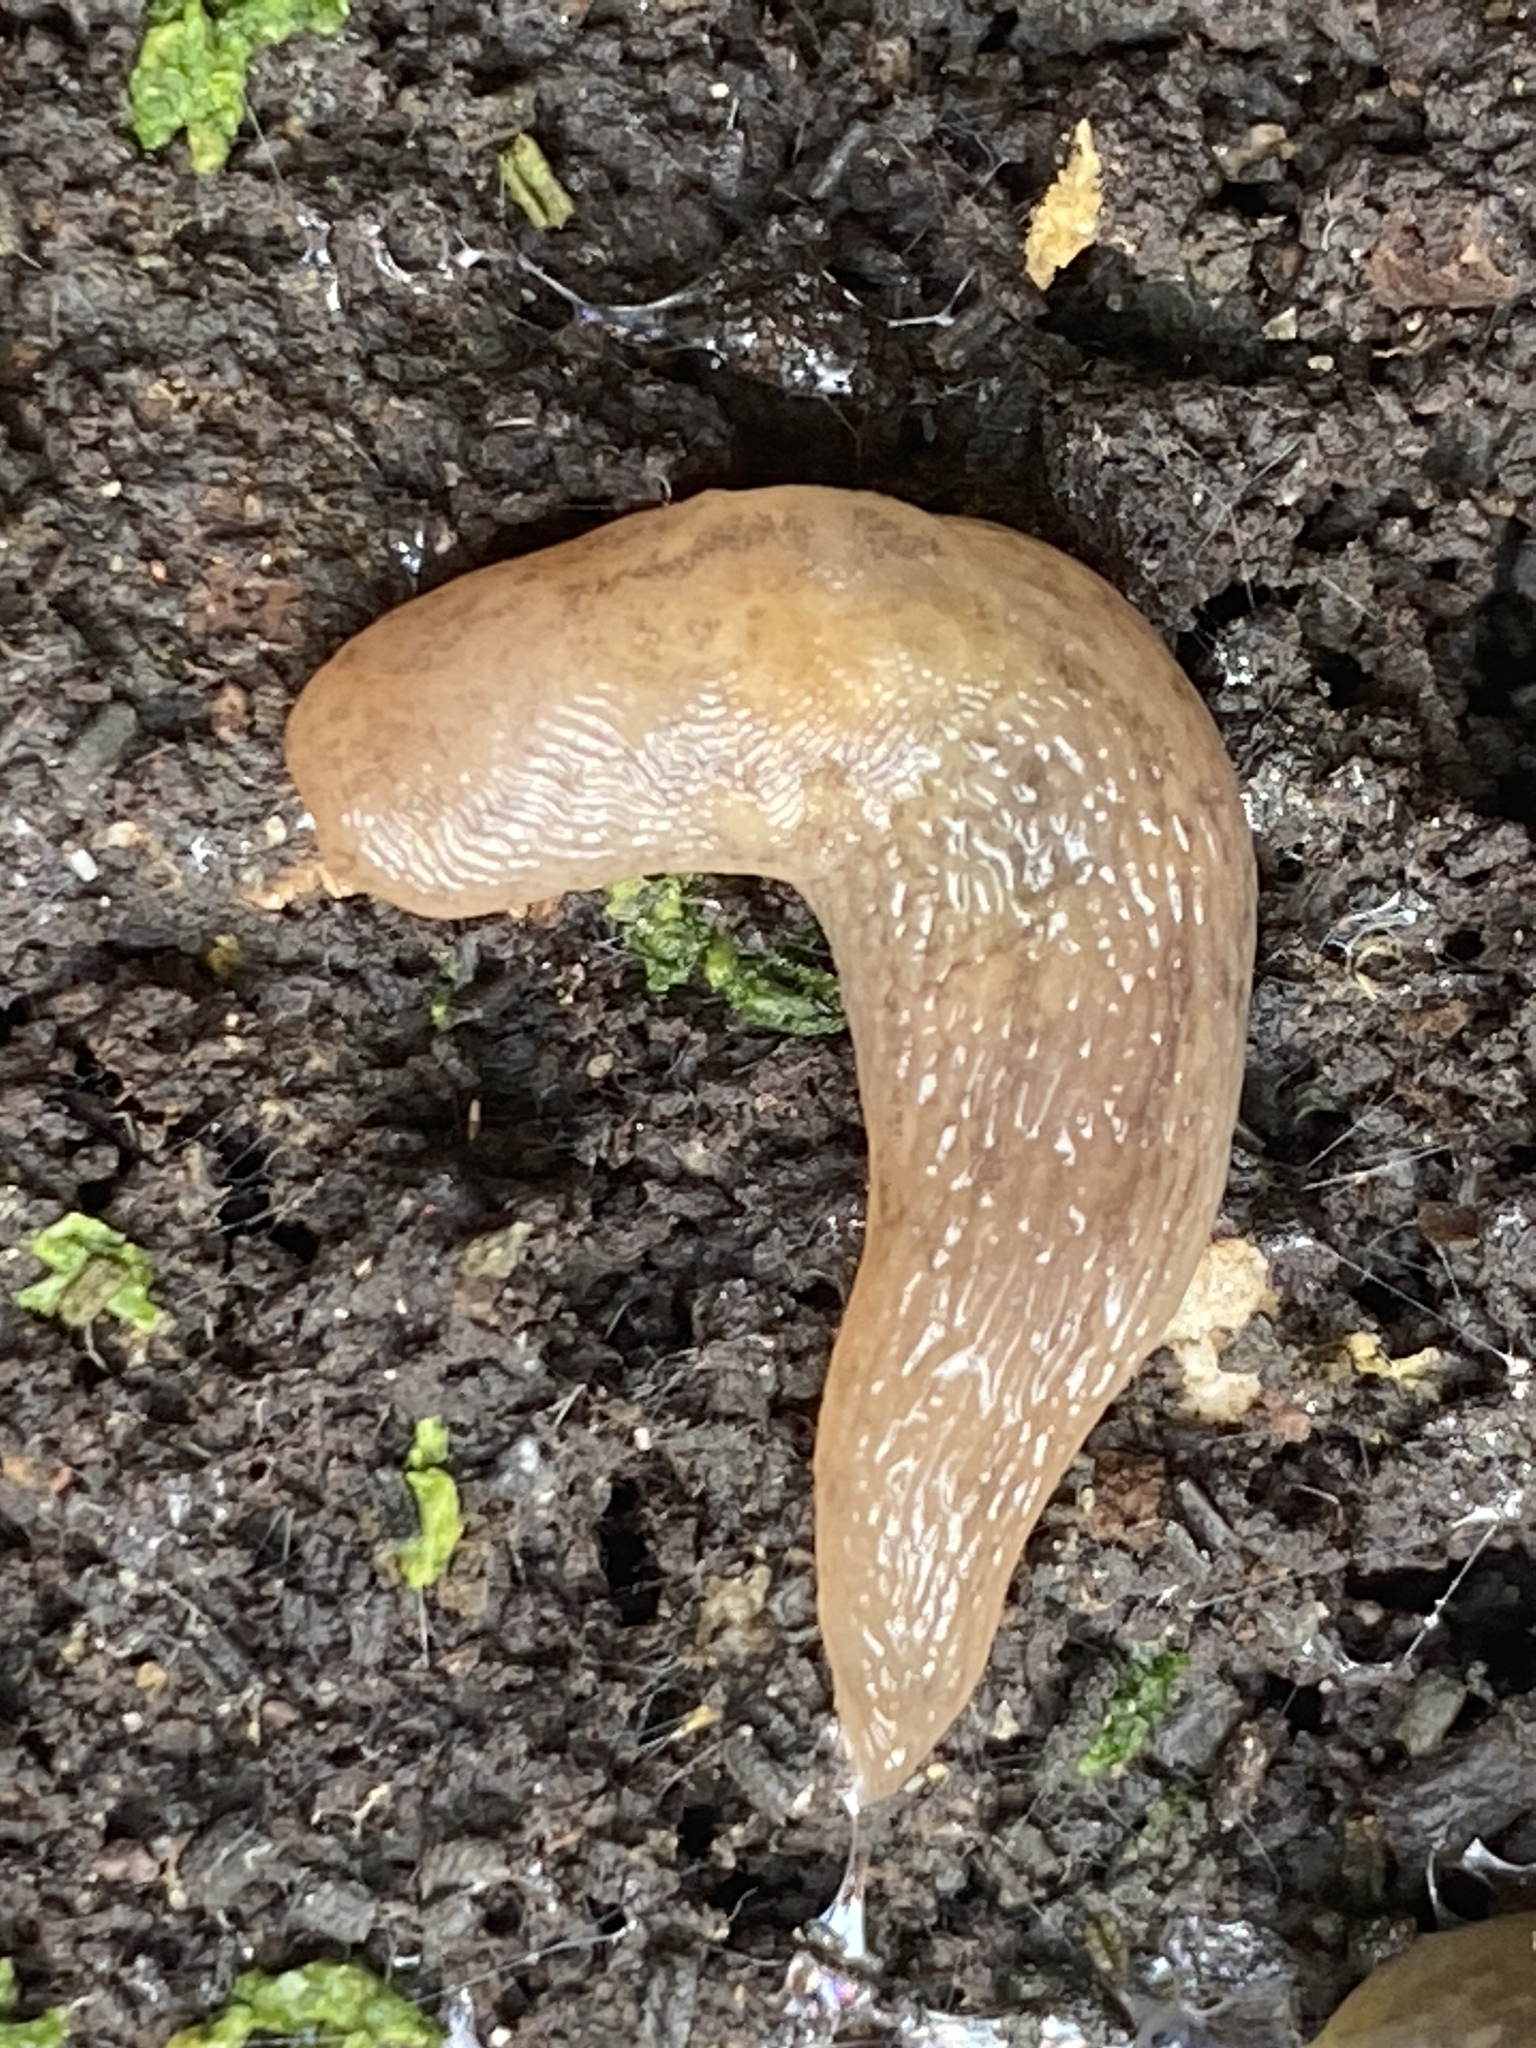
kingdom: Animalia
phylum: Mollusca
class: Gastropoda
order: Stylommatophora
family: Limacidae
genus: Ambigolimax
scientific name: Ambigolimax
